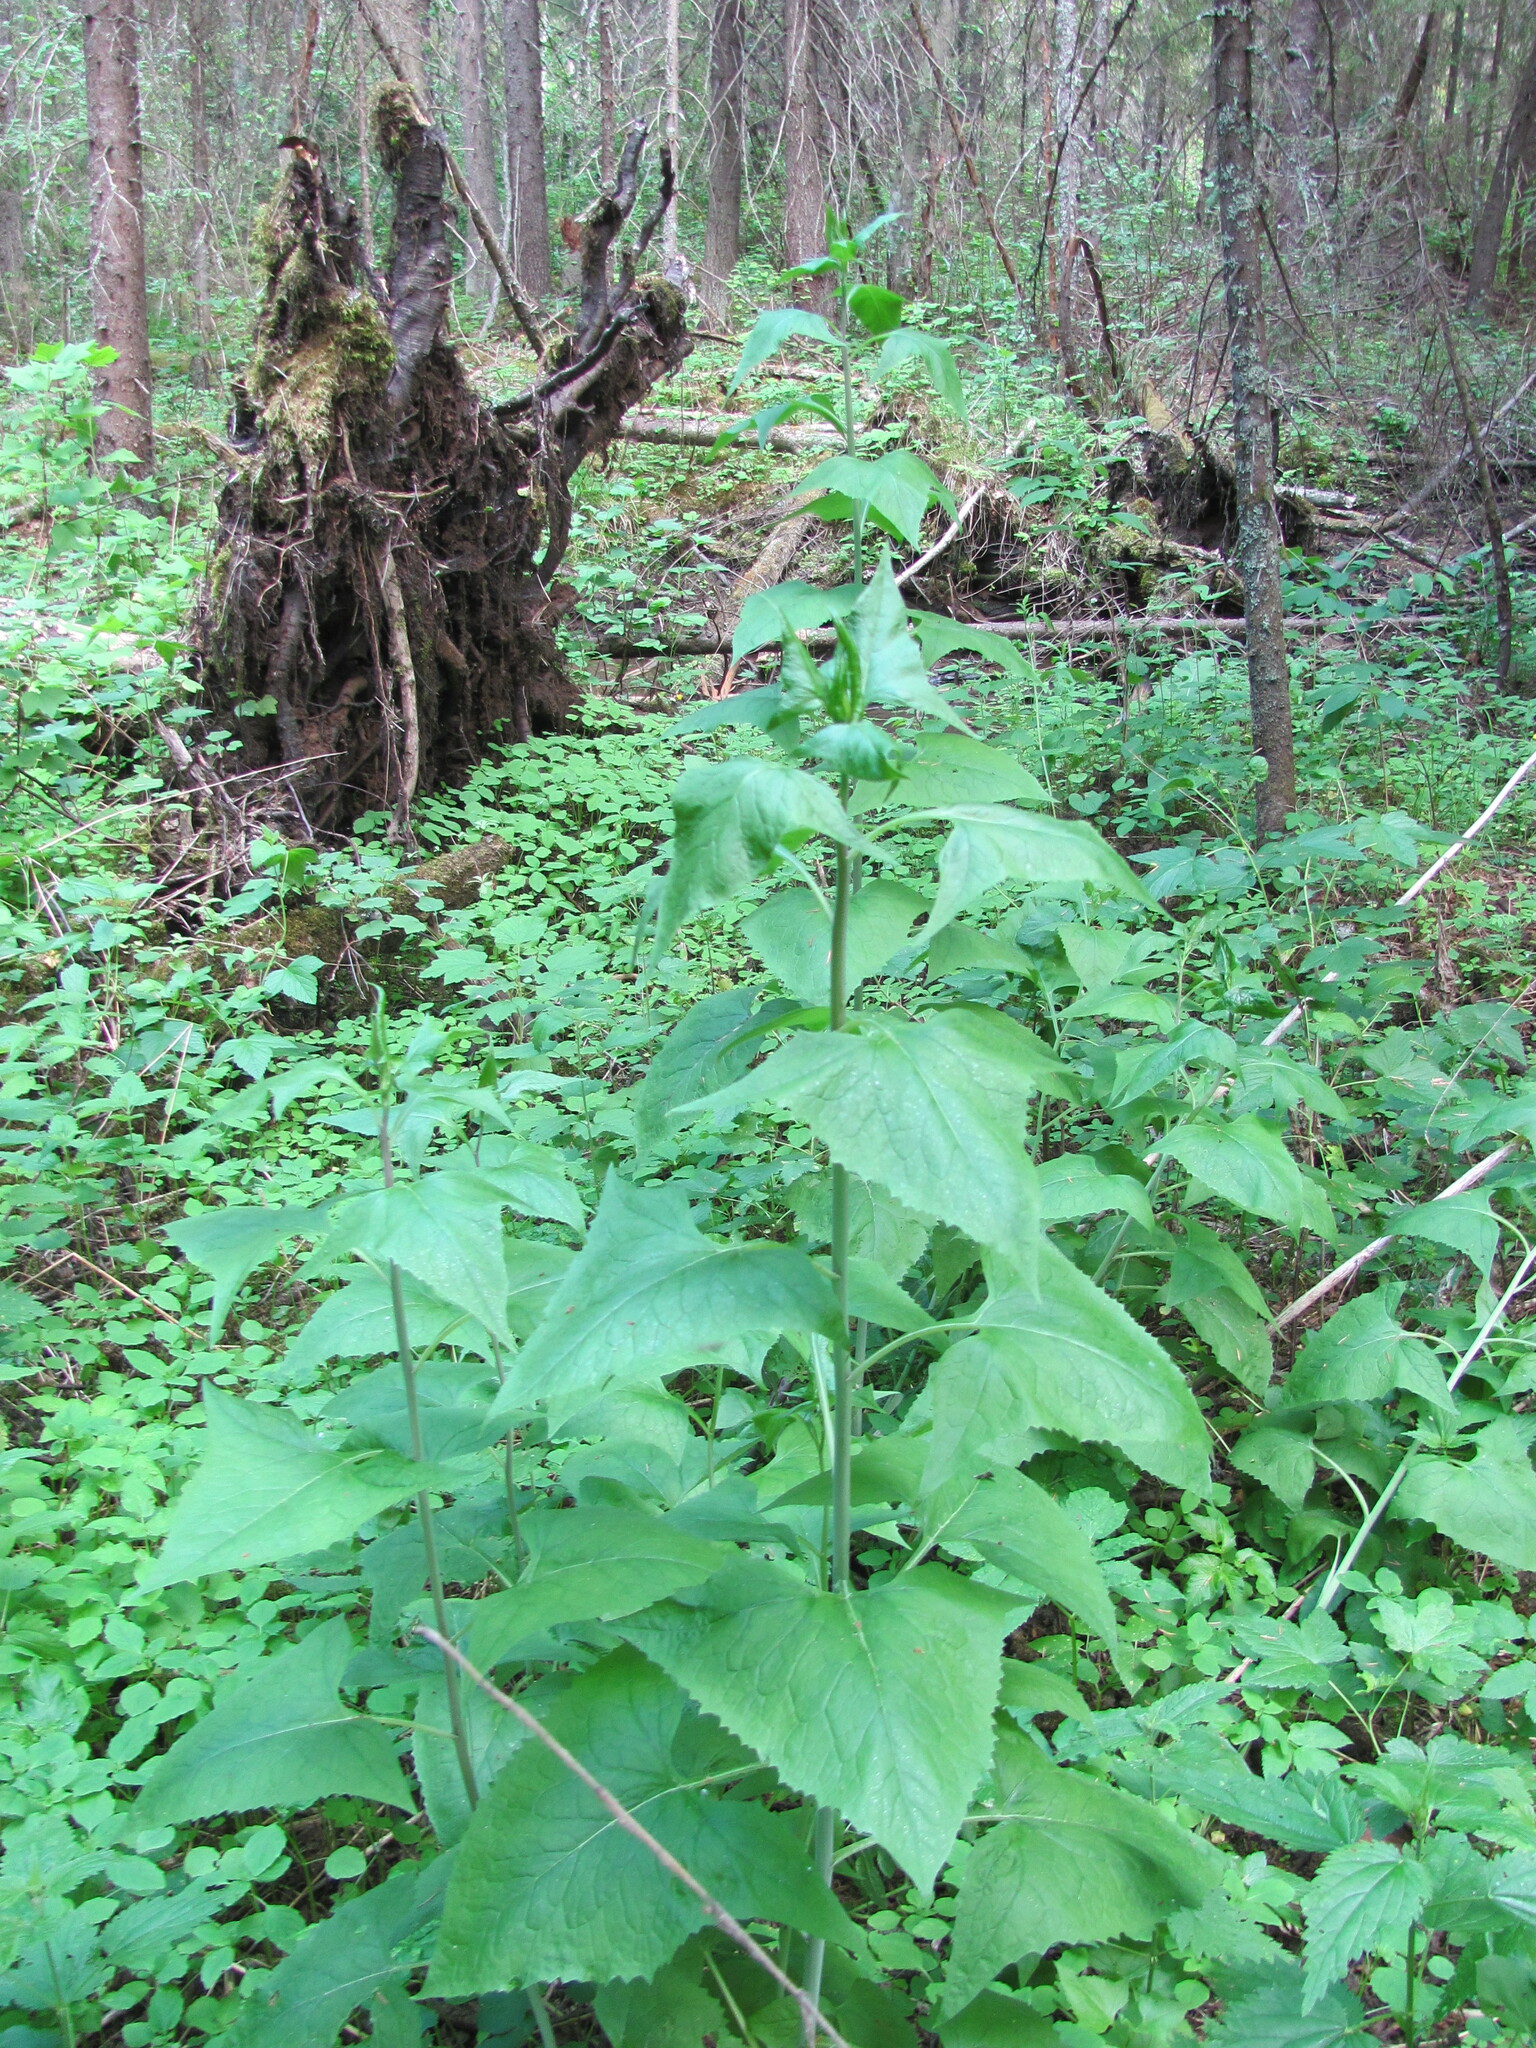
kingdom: Plantae
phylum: Tracheophyta
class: Magnoliopsida
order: Asterales
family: Asteraceae
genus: Parasenecio
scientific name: Parasenecio hastatus
